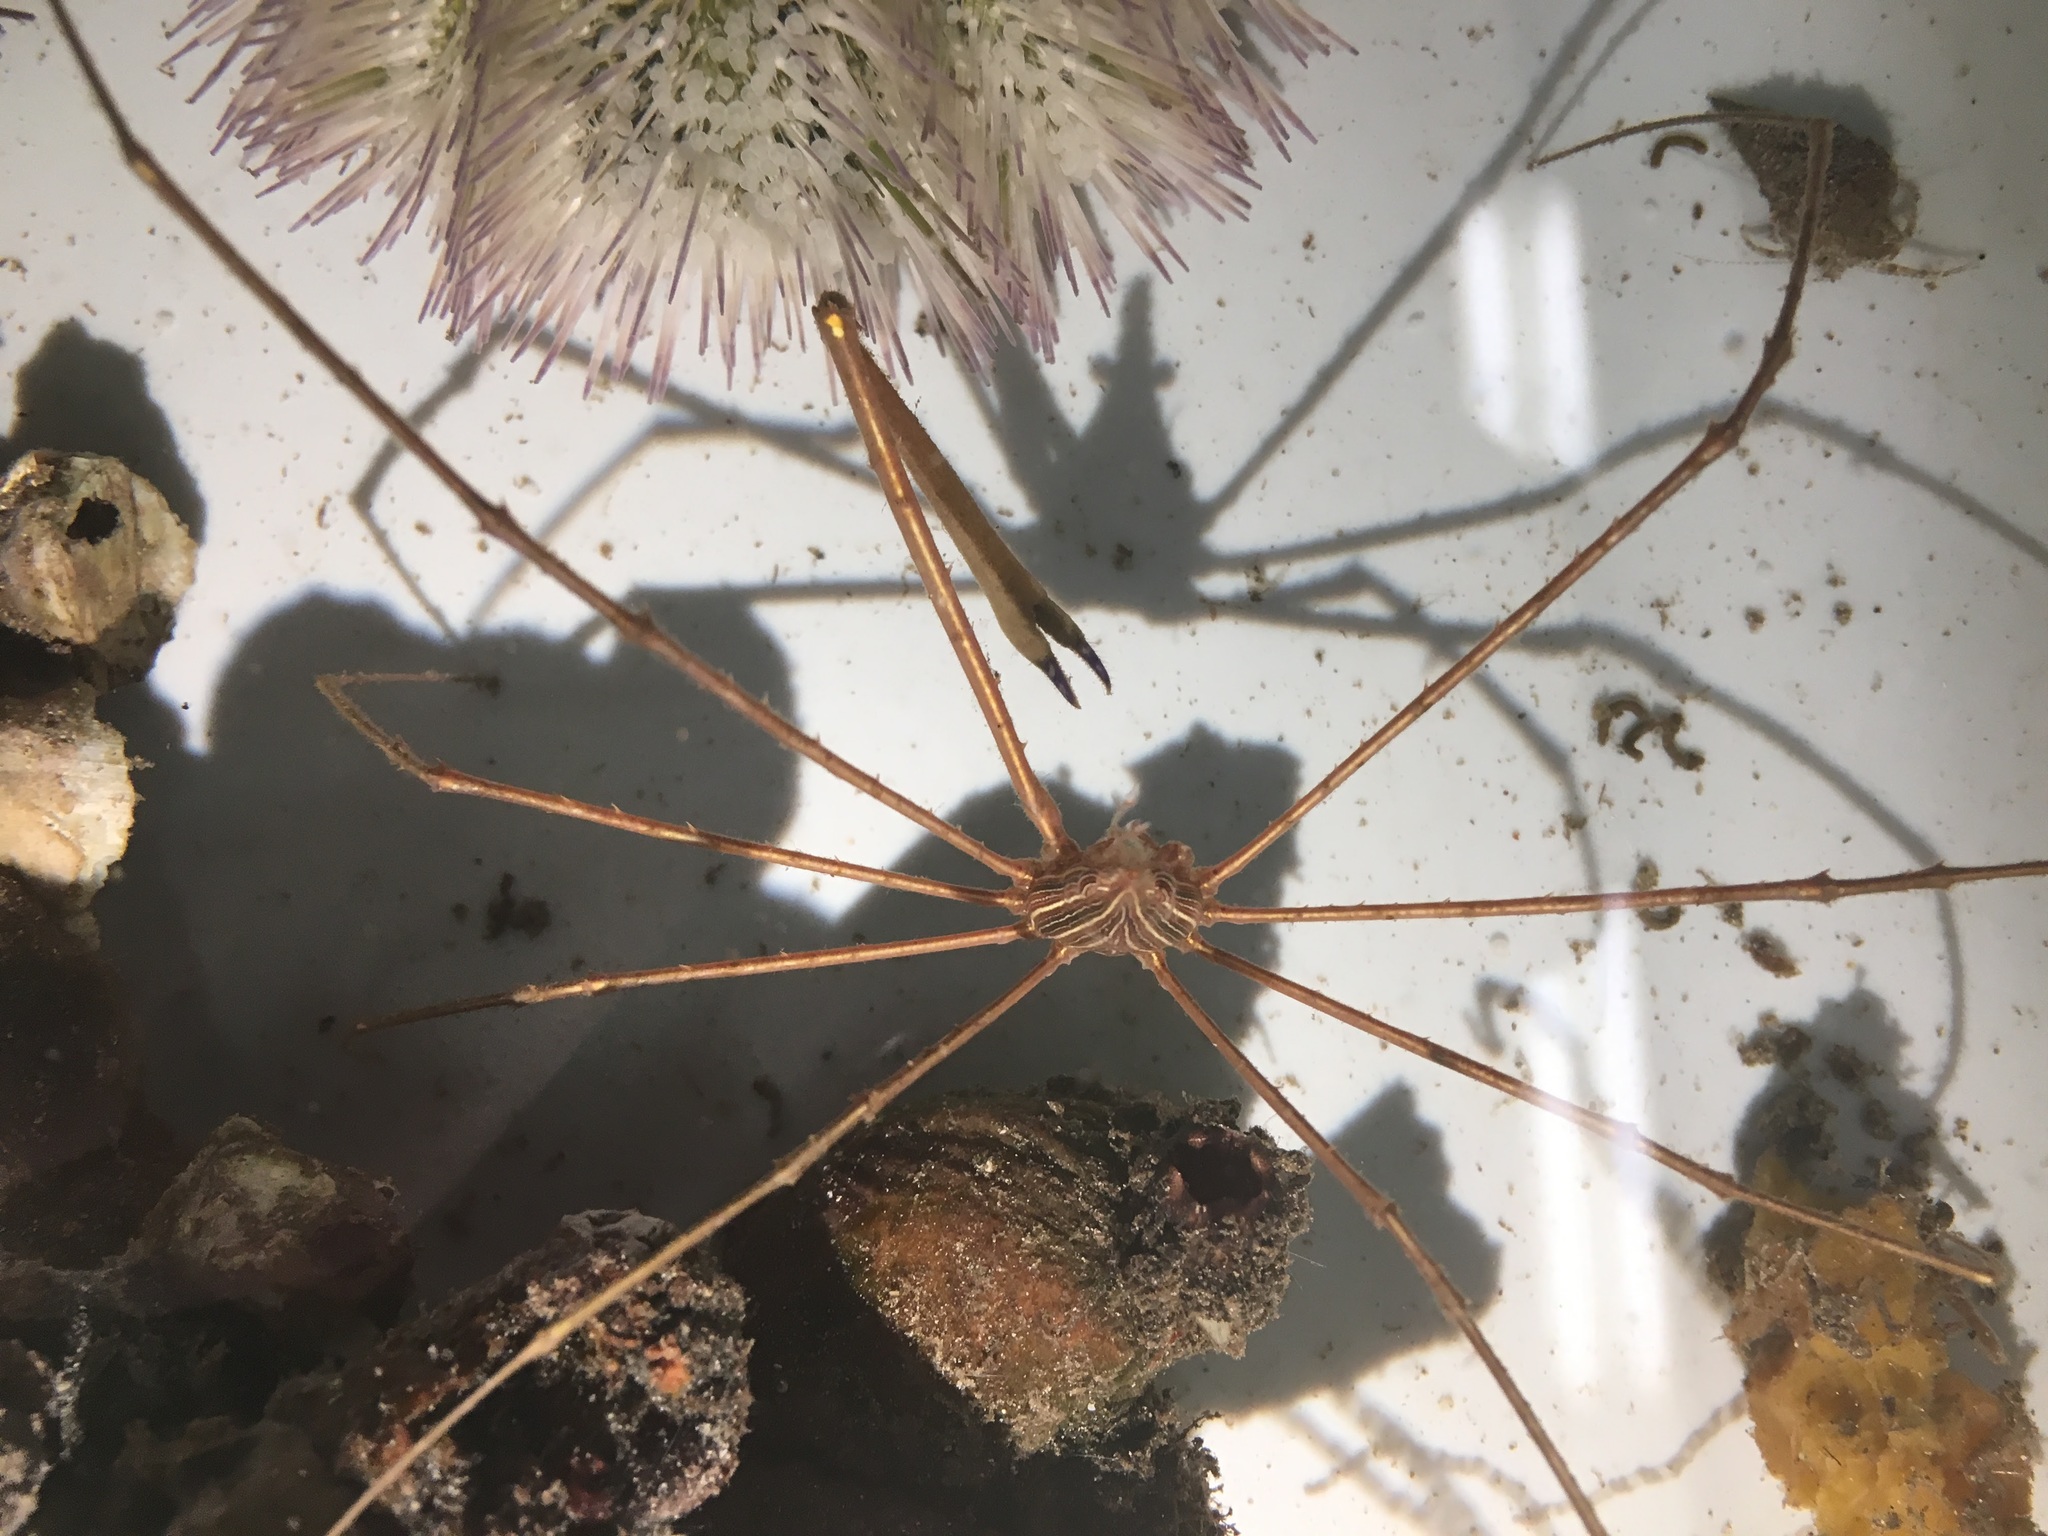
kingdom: Animalia
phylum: Arthropoda
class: Malacostraca
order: Decapoda
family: Inachoididae
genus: Stenorhynchus
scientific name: Stenorhynchus seticornis
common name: Arrow crab
